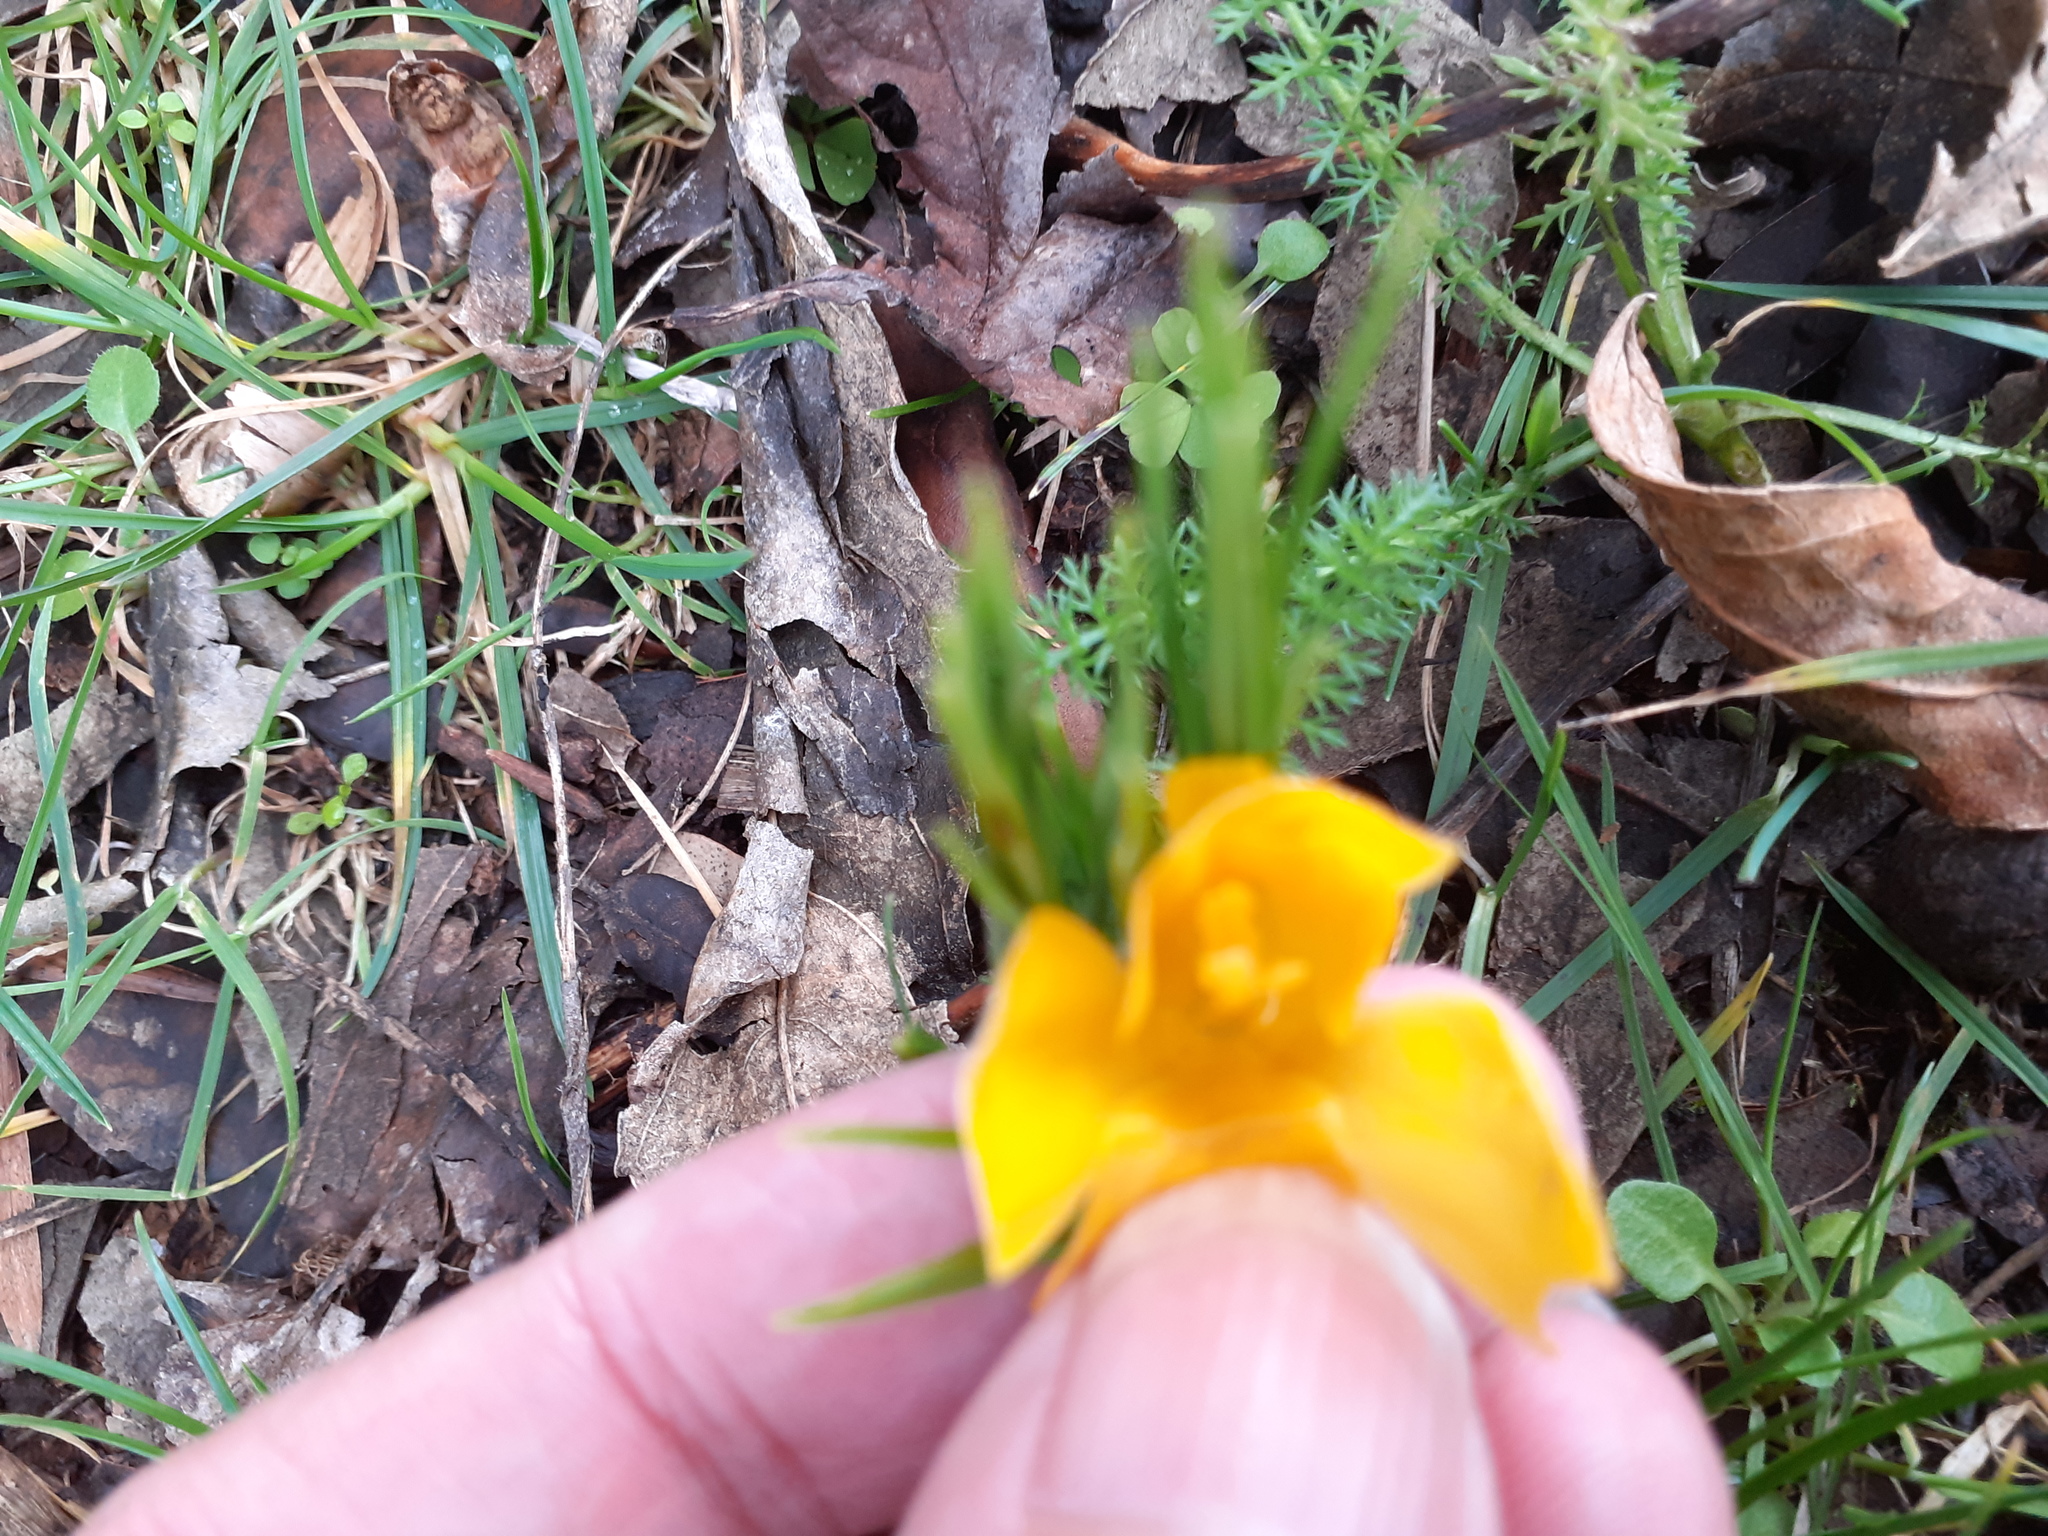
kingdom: Plantae
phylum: Tracheophyta
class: Liliopsida
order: Asparagales
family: Iridaceae
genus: Crocus
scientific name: Crocus luteus
